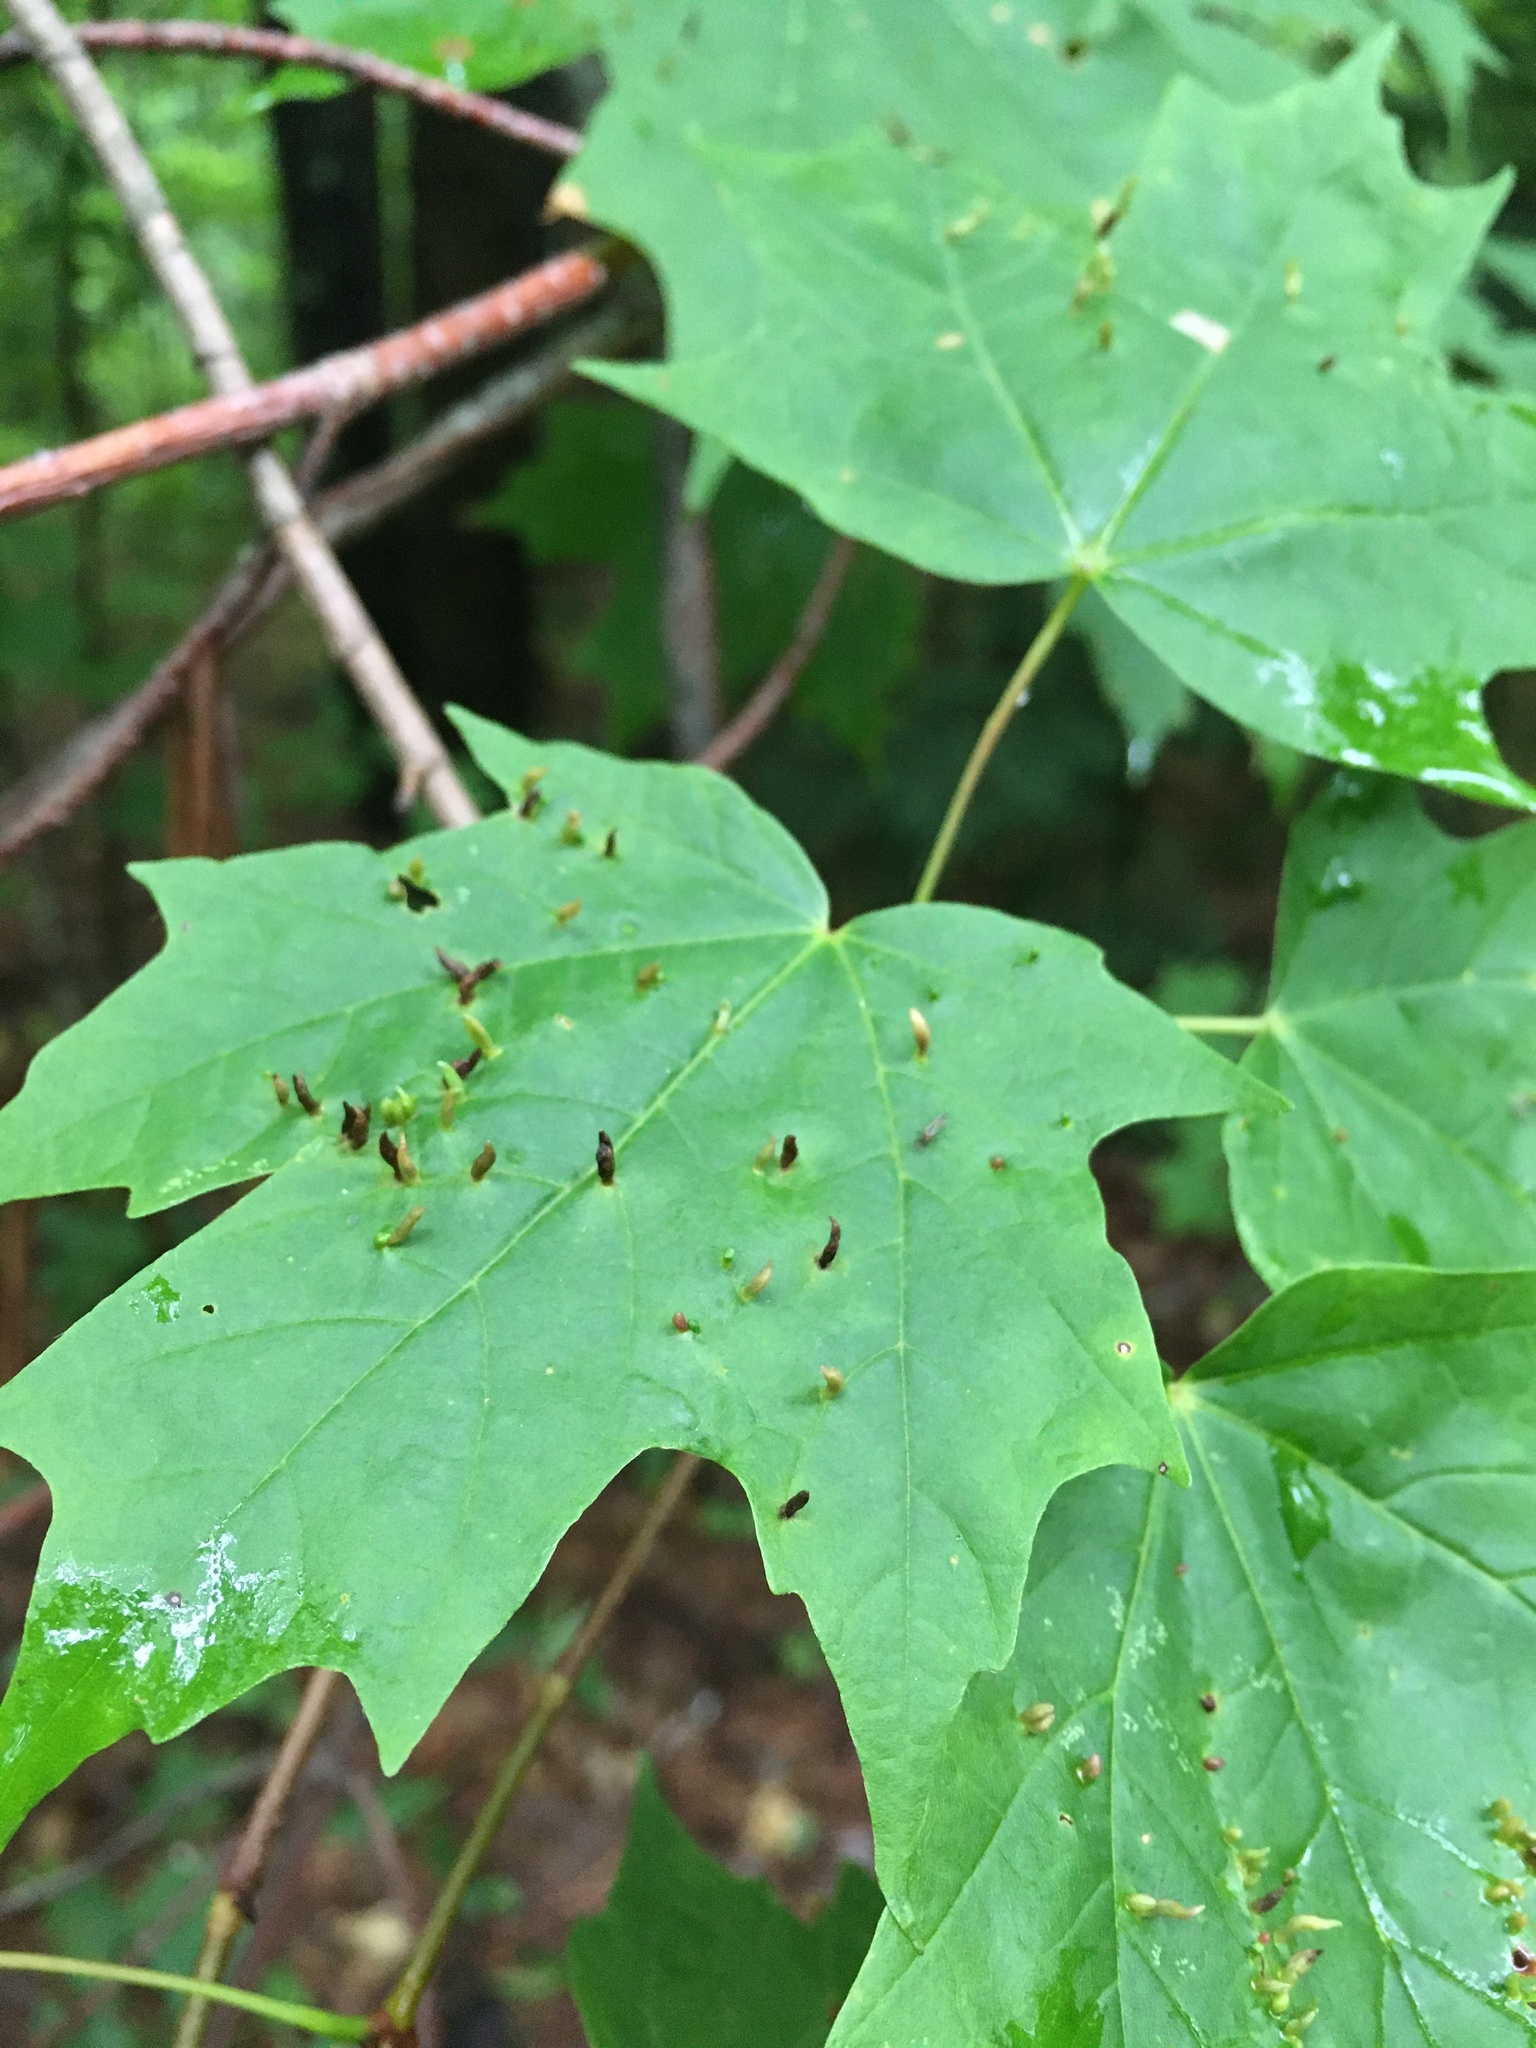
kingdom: Animalia
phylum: Arthropoda
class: Arachnida
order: Trombidiformes
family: Eriophyidae
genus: Vasates
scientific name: Vasates aceriscrumena
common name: Maple spindle gall mite
